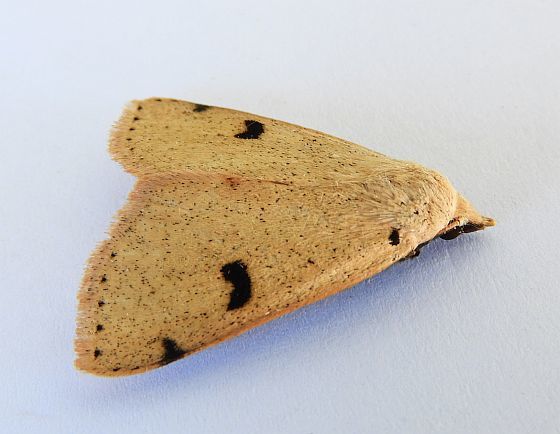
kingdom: Animalia
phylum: Arthropoda
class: Insecta
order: Lepidoptera
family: Erebidae
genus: Scolecocampa
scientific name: Scolecocampa atriluna
